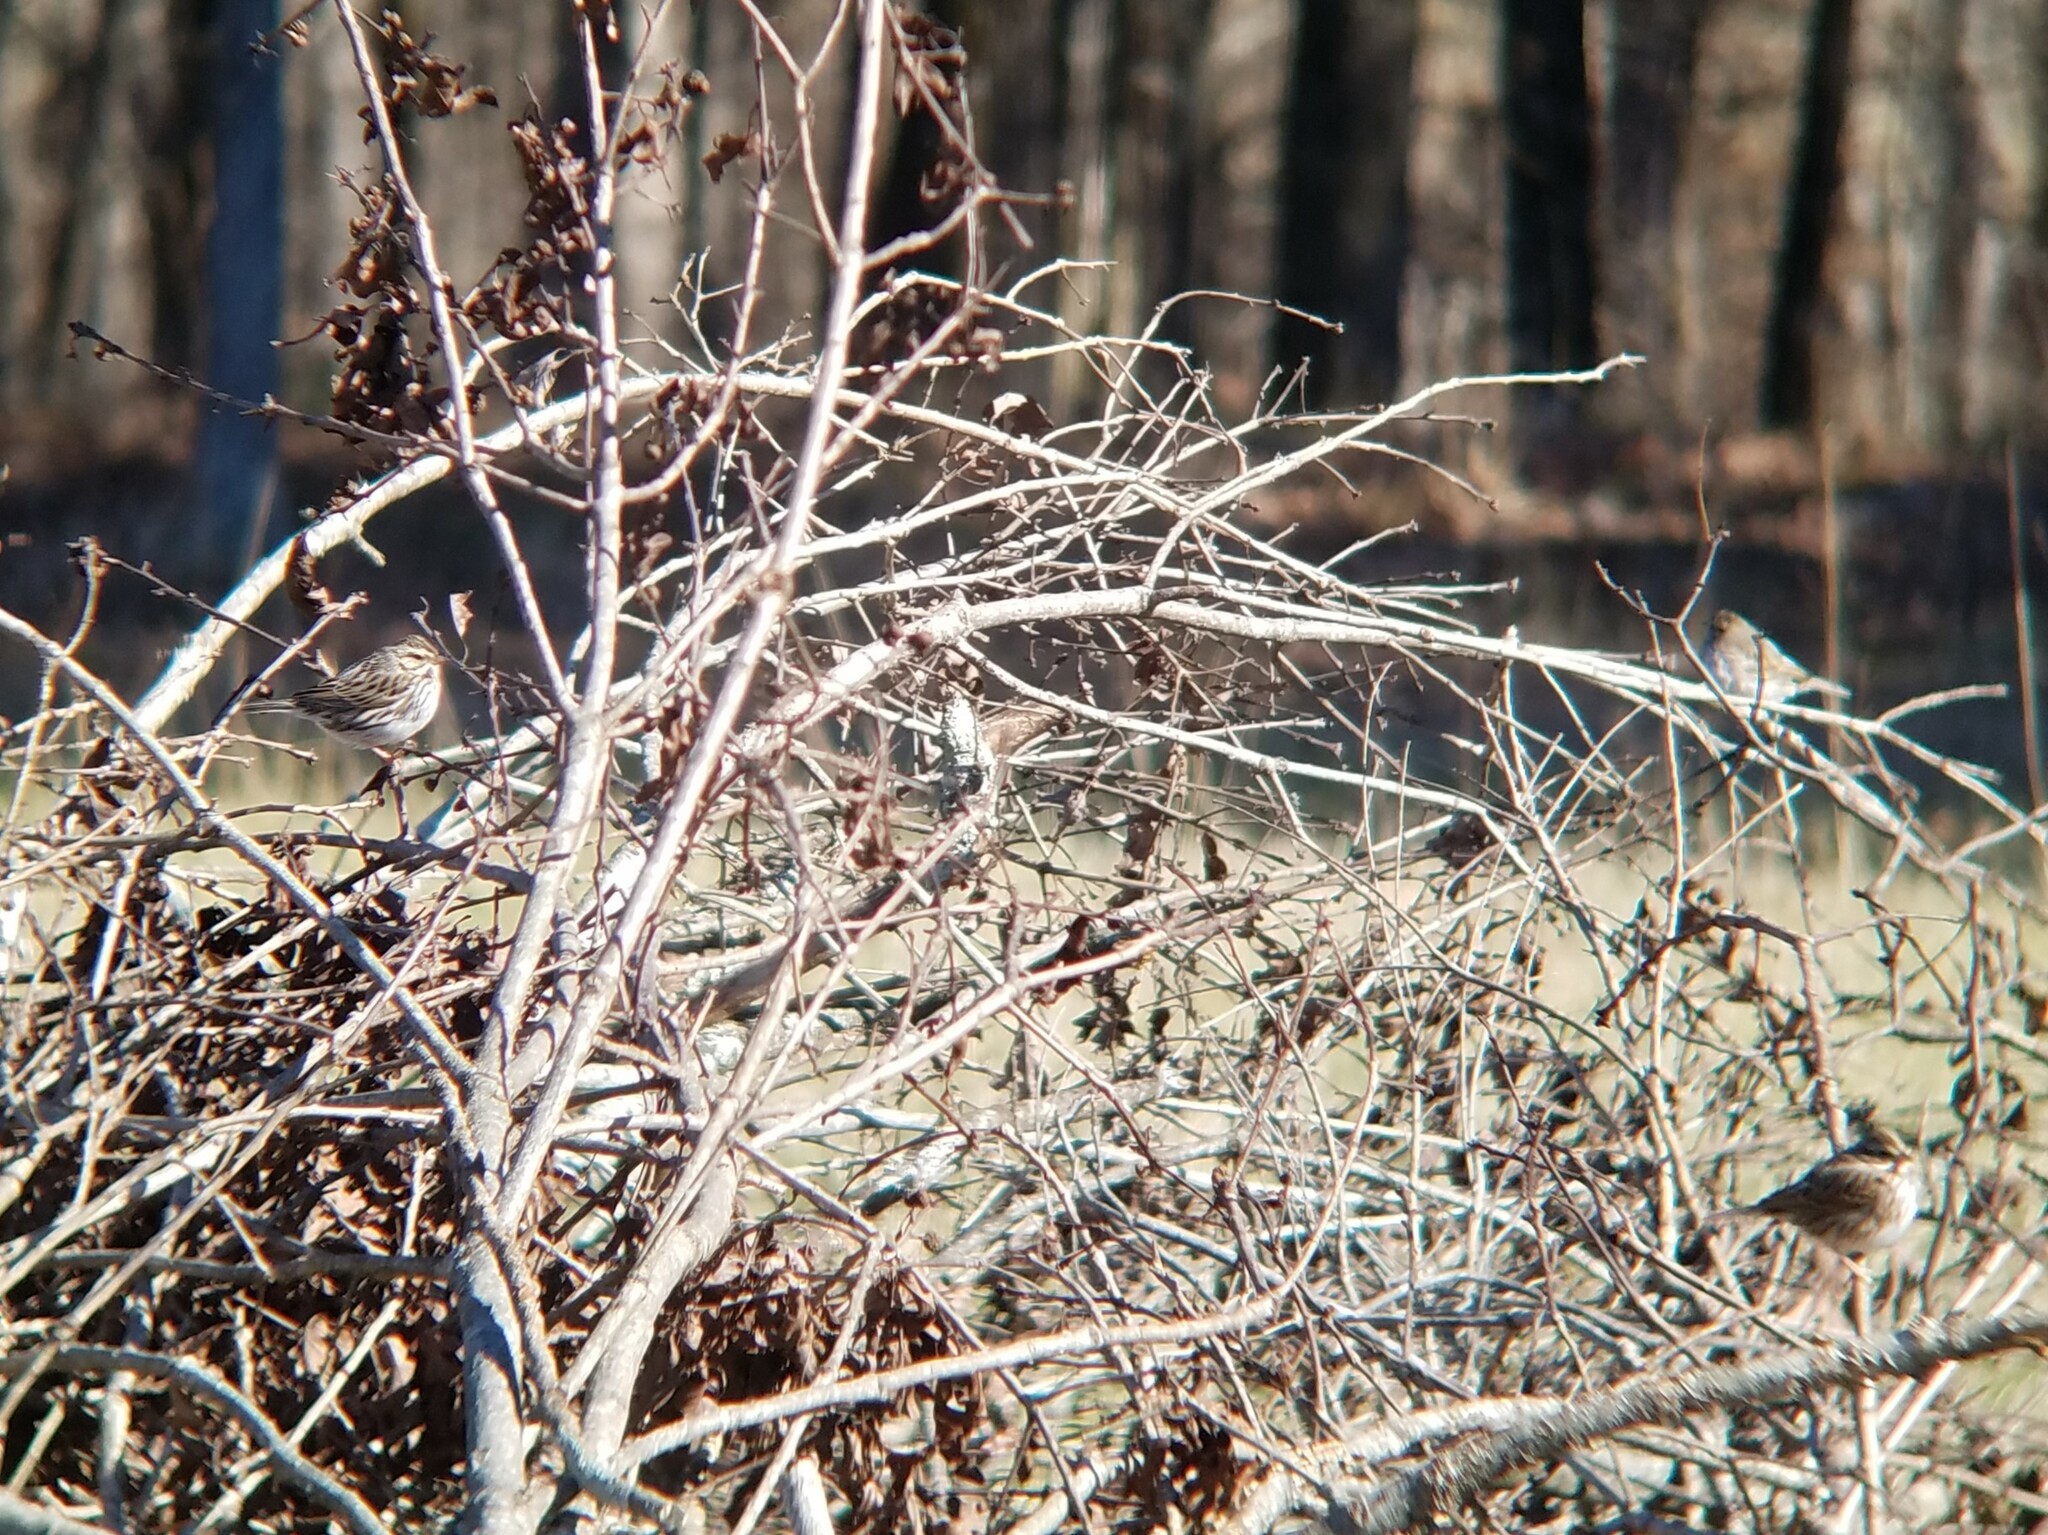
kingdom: Animalia
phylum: Chordata
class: Aves
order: Passeriformes
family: Passerellidae
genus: Passerculus
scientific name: Passerculus sandwichensis
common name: Savannah sparrow
